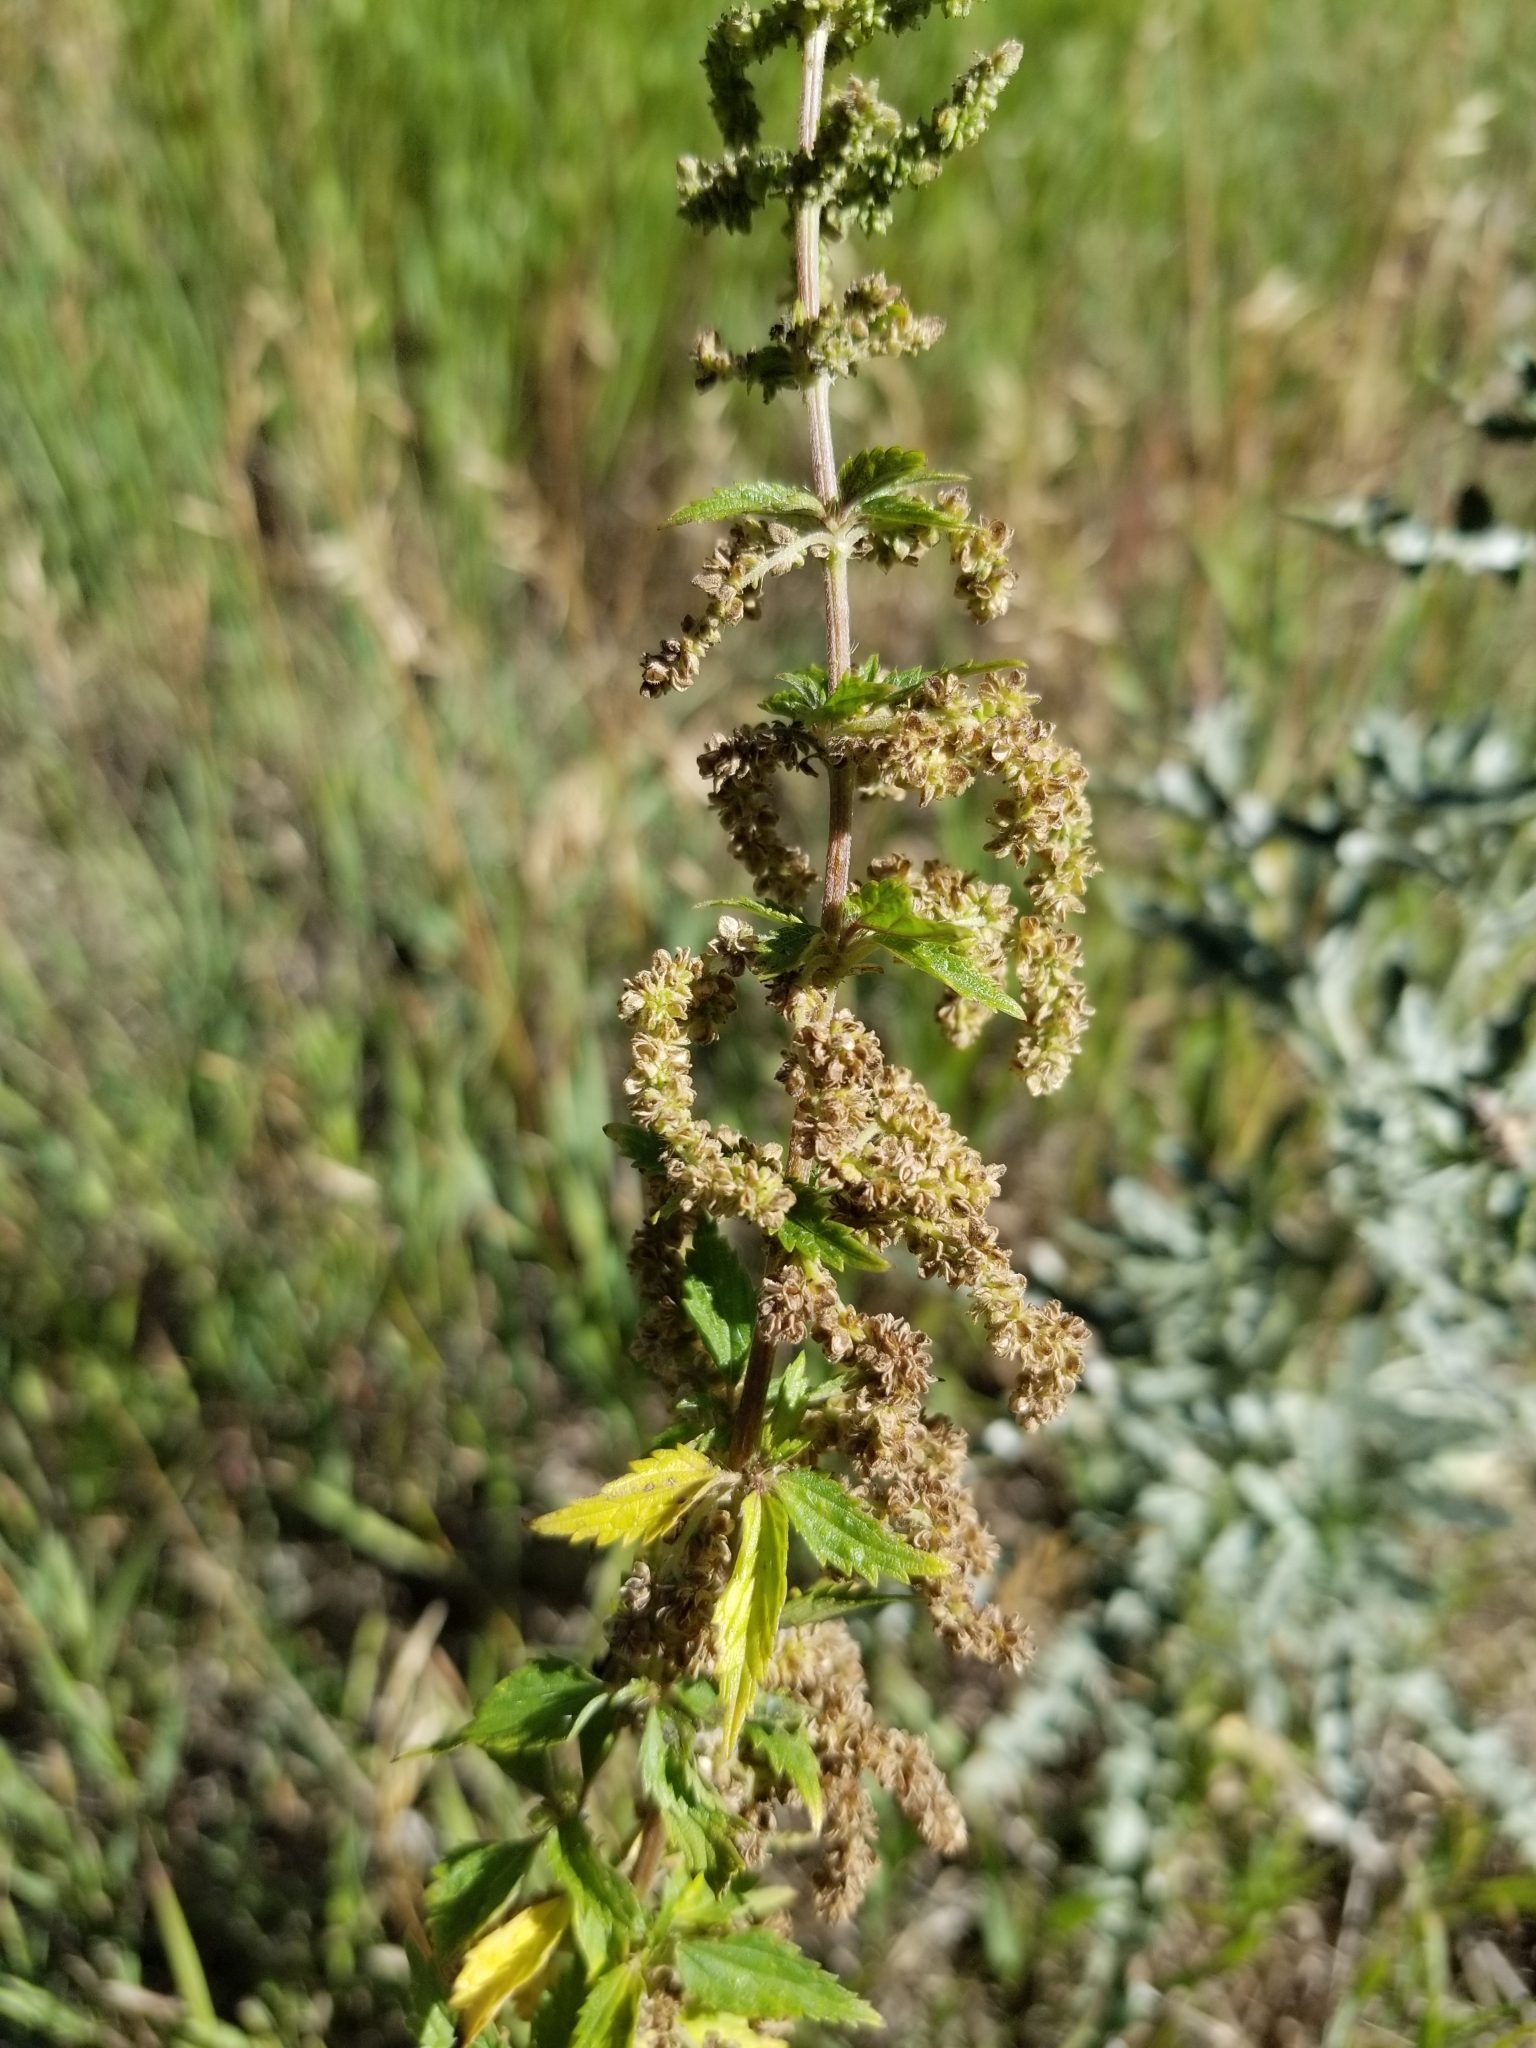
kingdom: Plantae
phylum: Tracheophyta
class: Magnoliopsida
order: Rosales
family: Urticaceae
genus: Urtica
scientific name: Urtica dioica
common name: Common nettle
